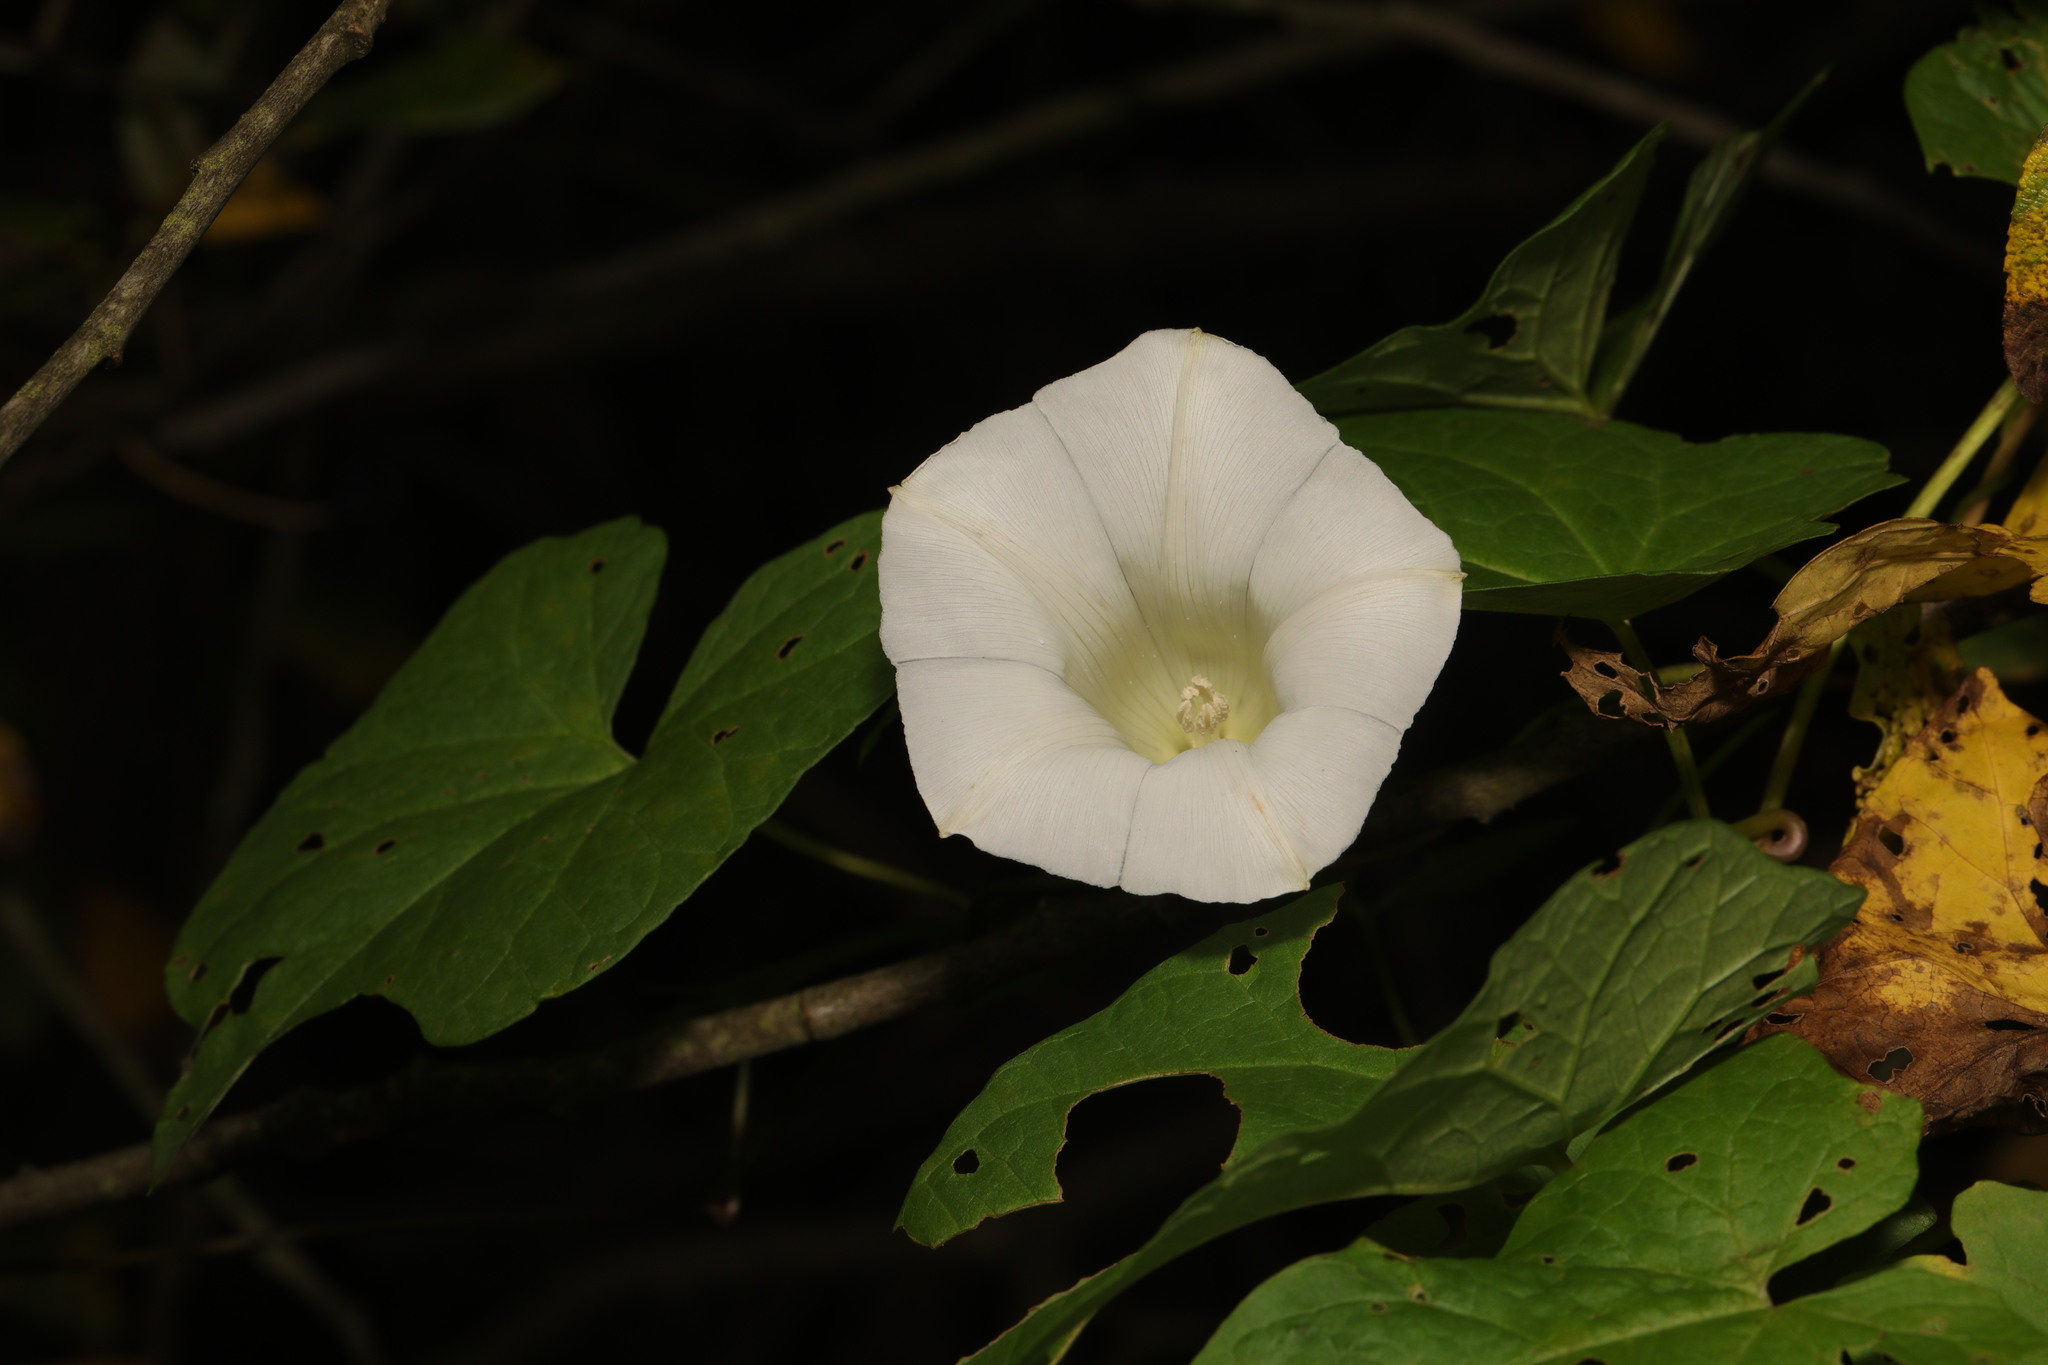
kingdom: Plantae
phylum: Tracheophyta
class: Magnoliopsida
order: Solanales
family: Convolvulaceae
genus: Calystegia
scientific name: Calystegia
